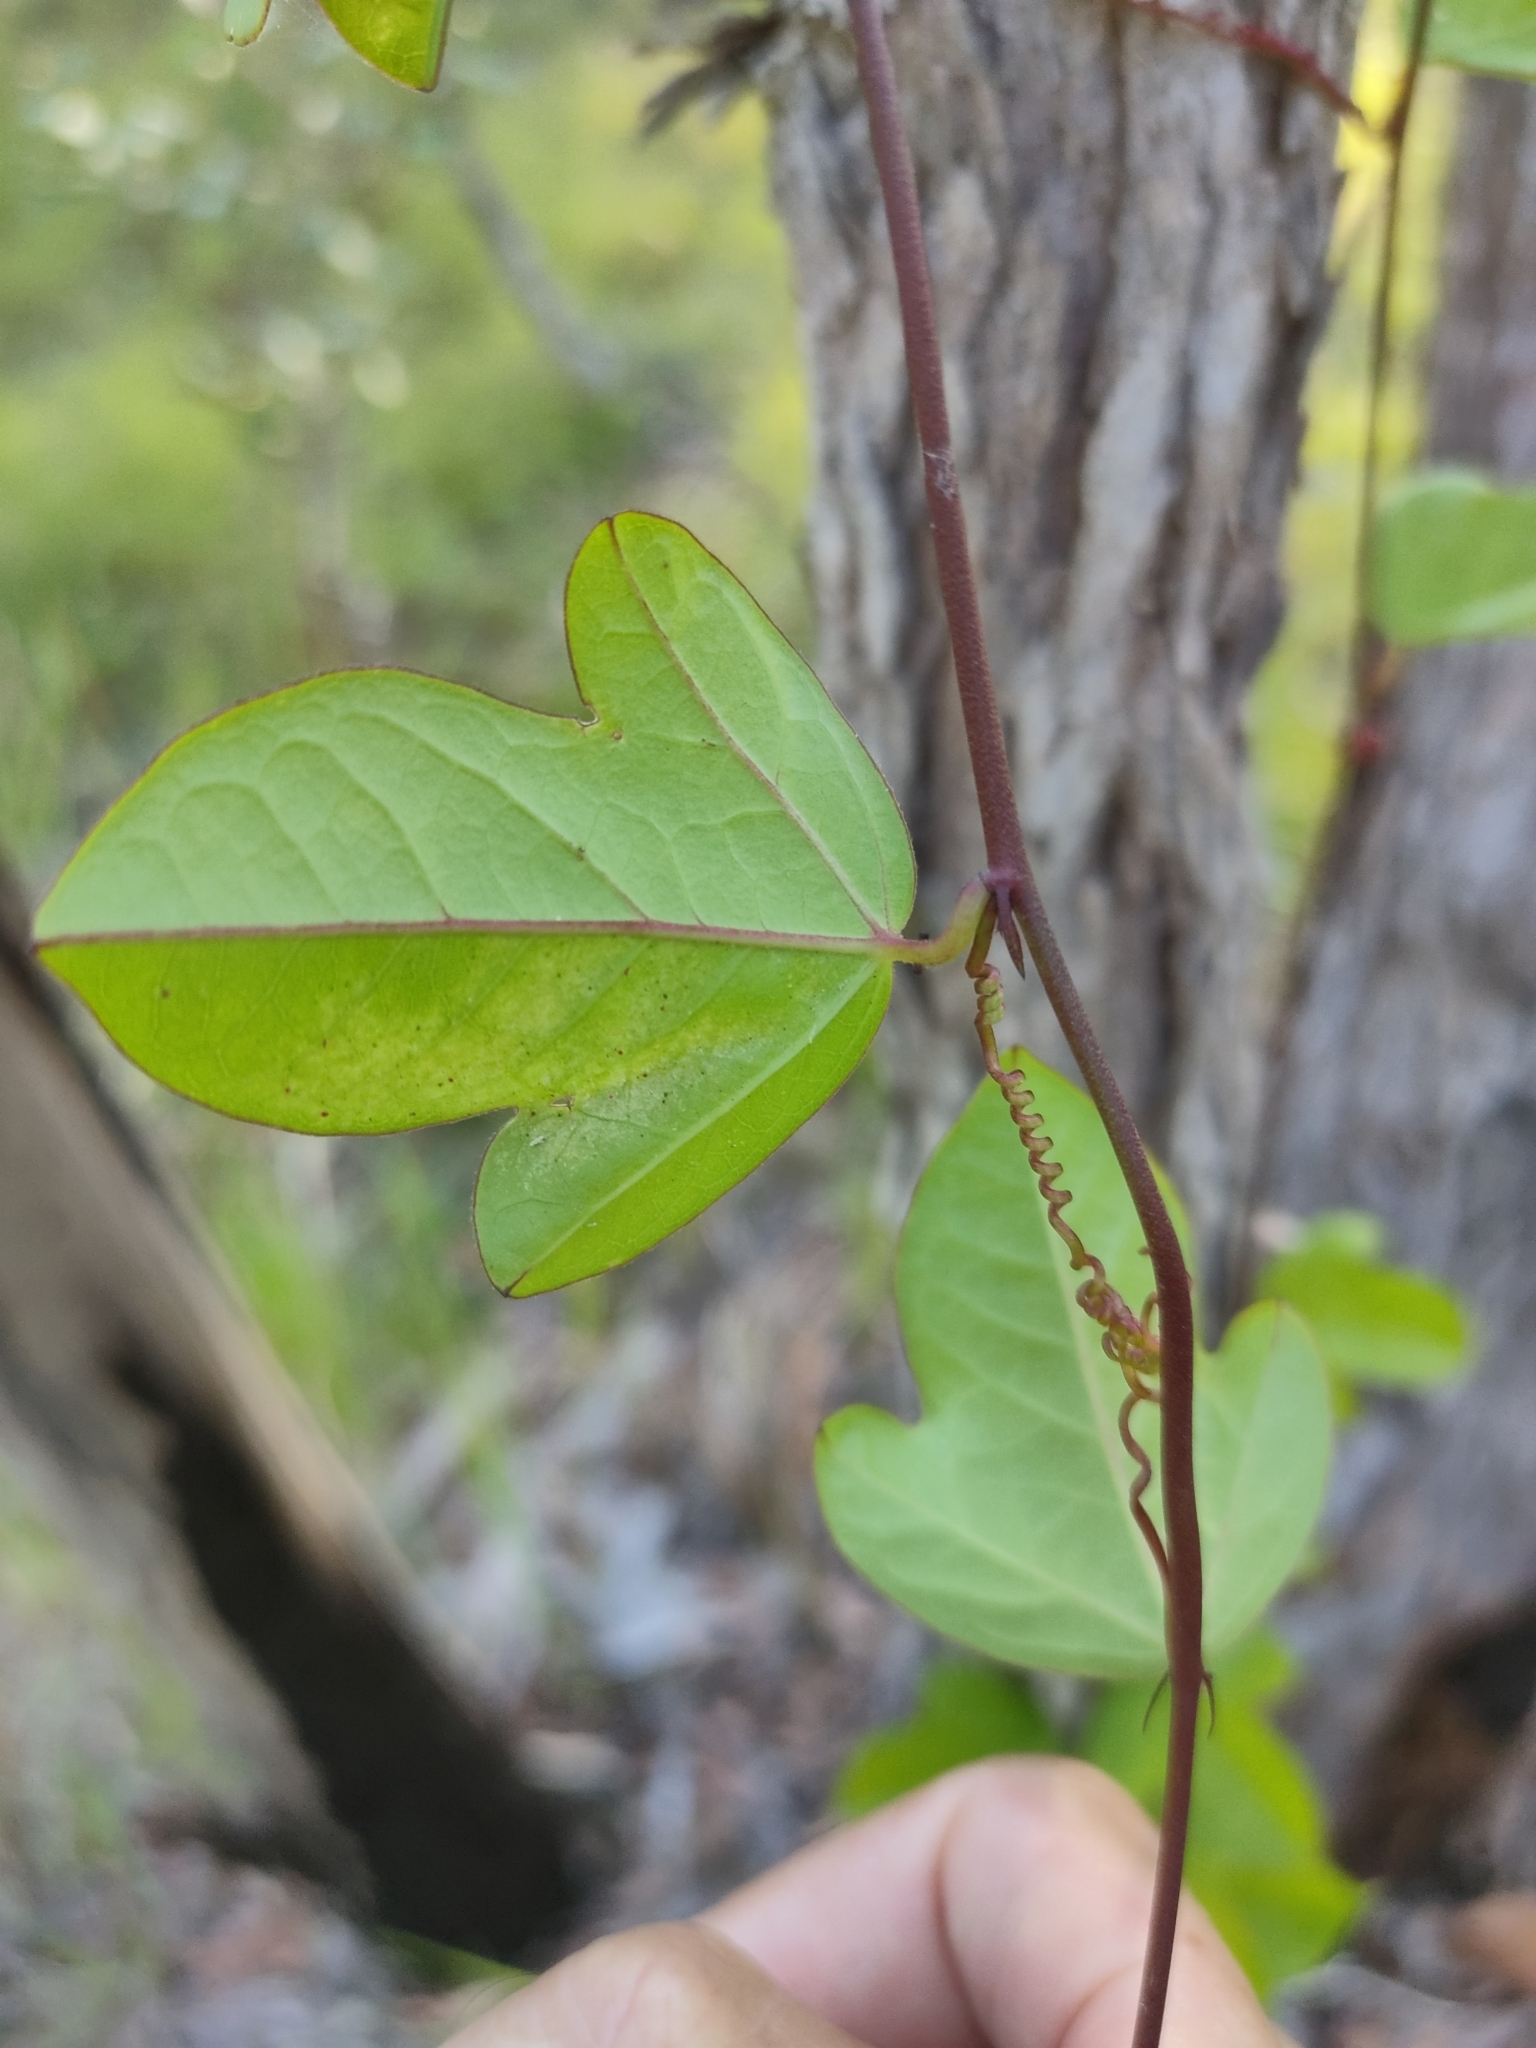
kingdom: Plantae
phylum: Tracheophyta
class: Magnoliopsida
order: Malpighiales
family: Passifloraceae
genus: Passiflora
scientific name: Passiflora pallida
